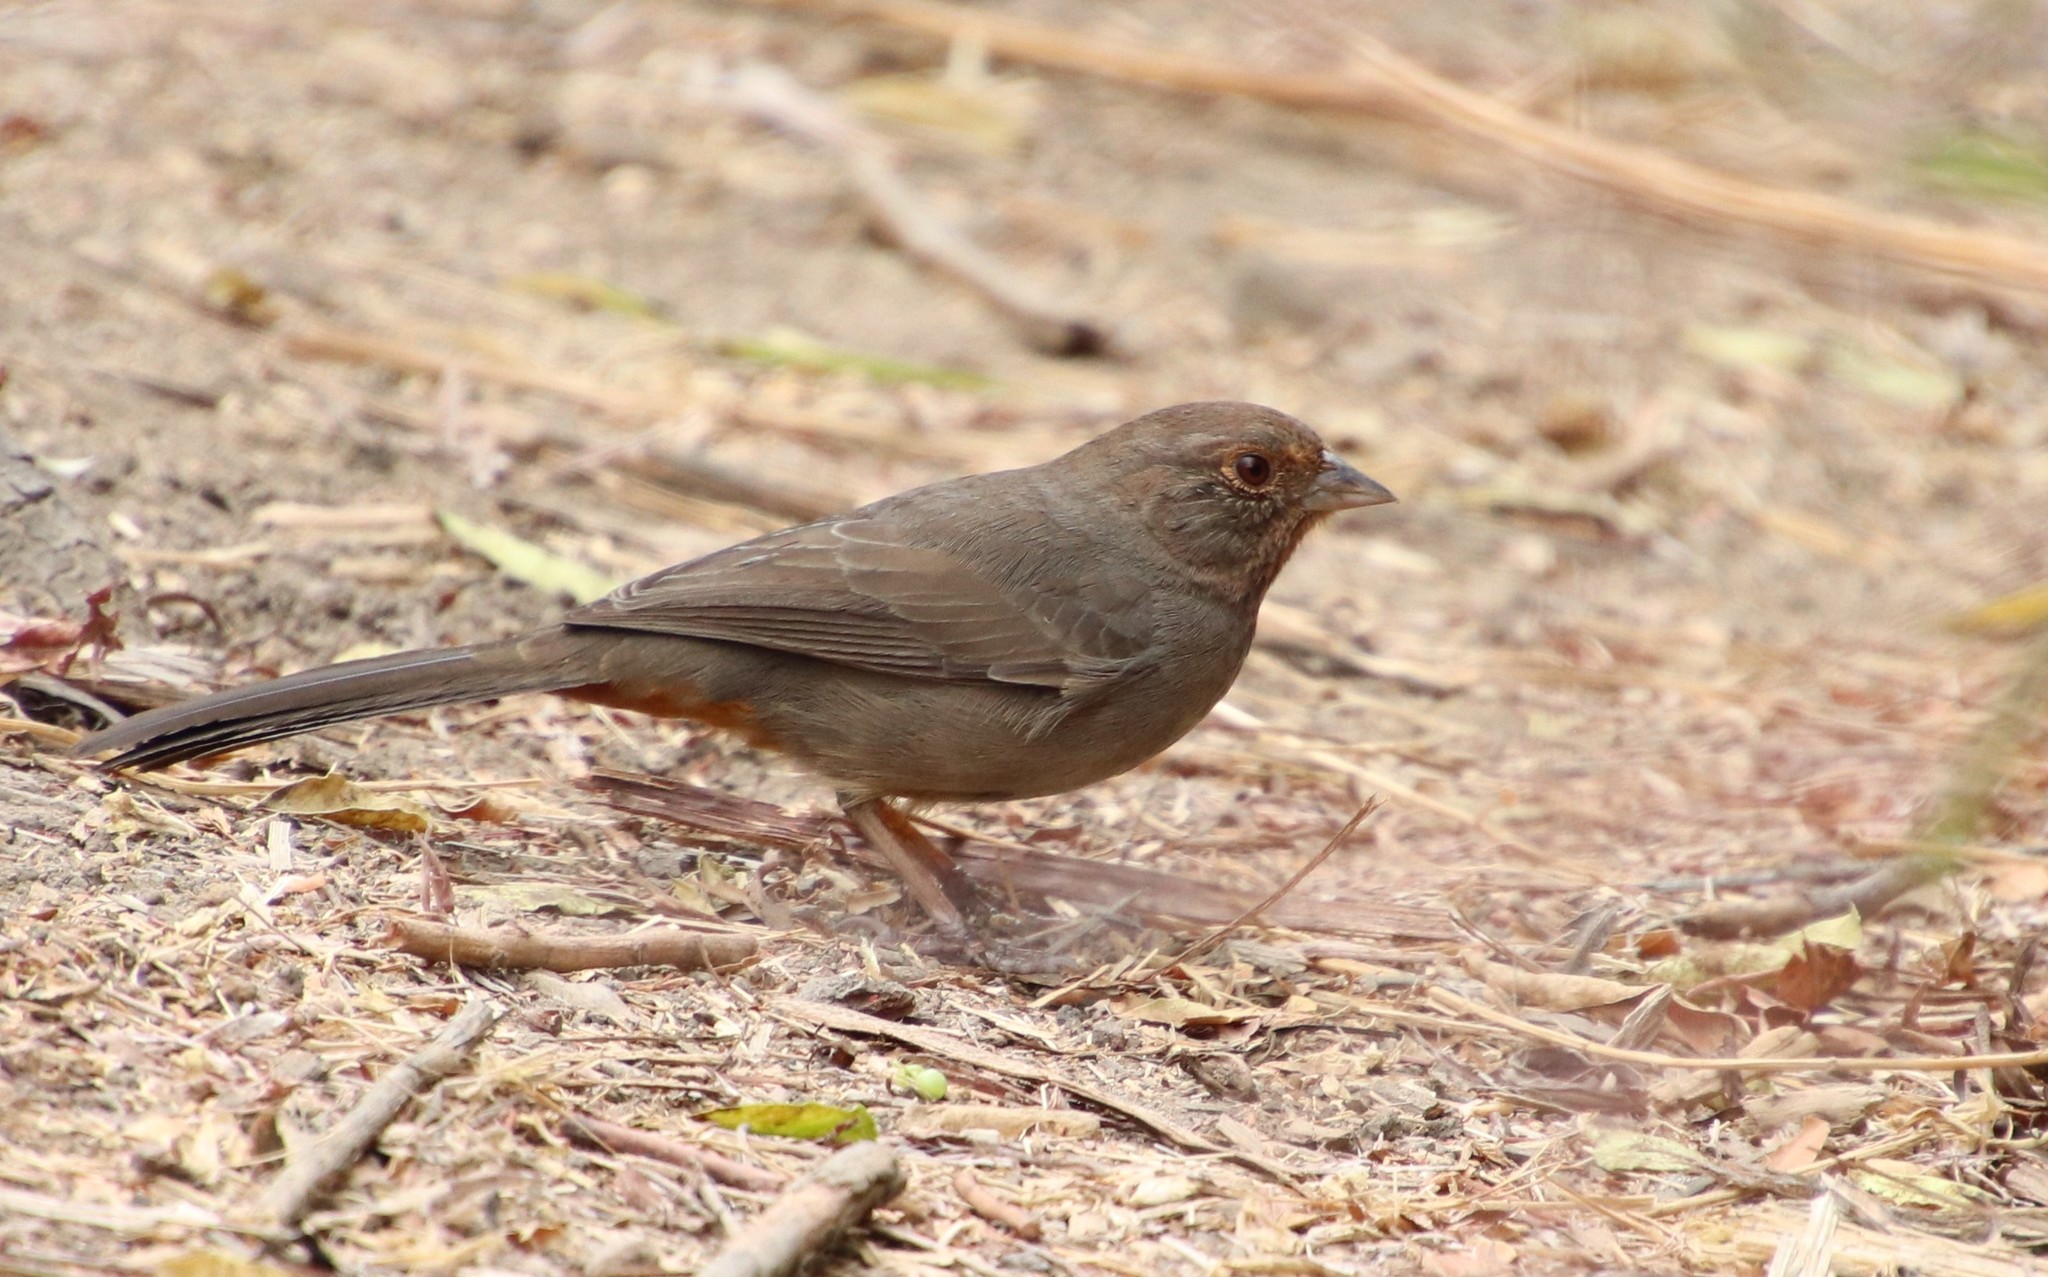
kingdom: Animalia
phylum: Chordata
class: Aves
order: Passeriformes
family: Passerellidae
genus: Melozone
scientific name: Melozone crissalis
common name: California towhee
